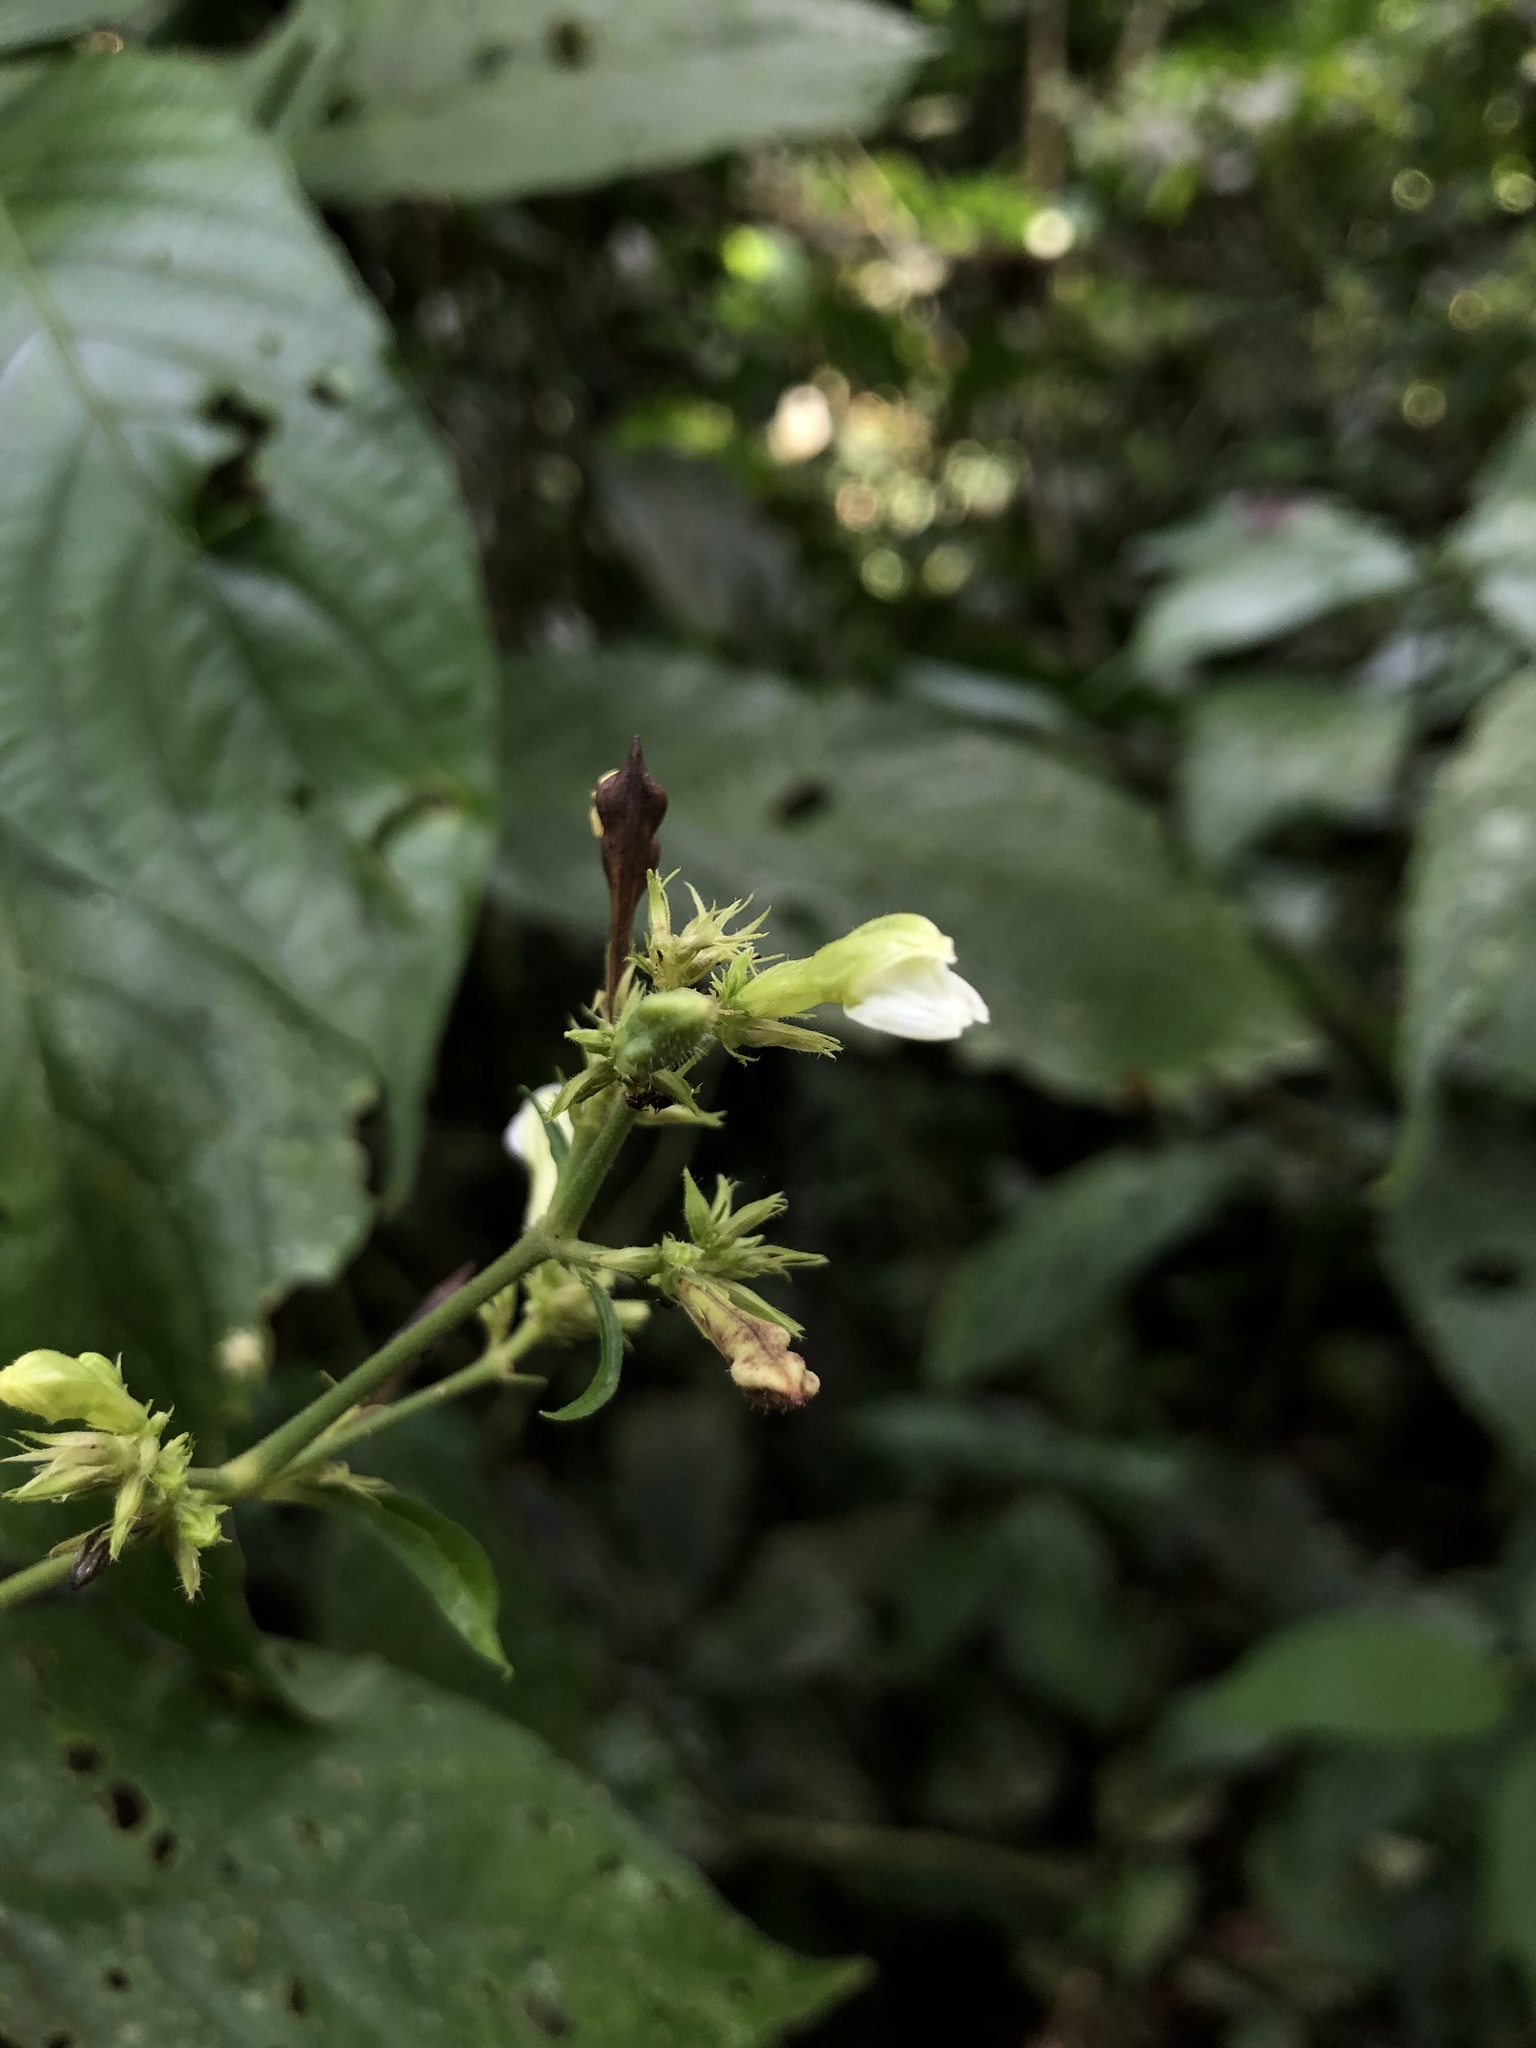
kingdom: Plantae
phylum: Tracheophyta
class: Magnoliopsida
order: Lamiales
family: Acanthaceae
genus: Justicia
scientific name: Justicia chloanantha
